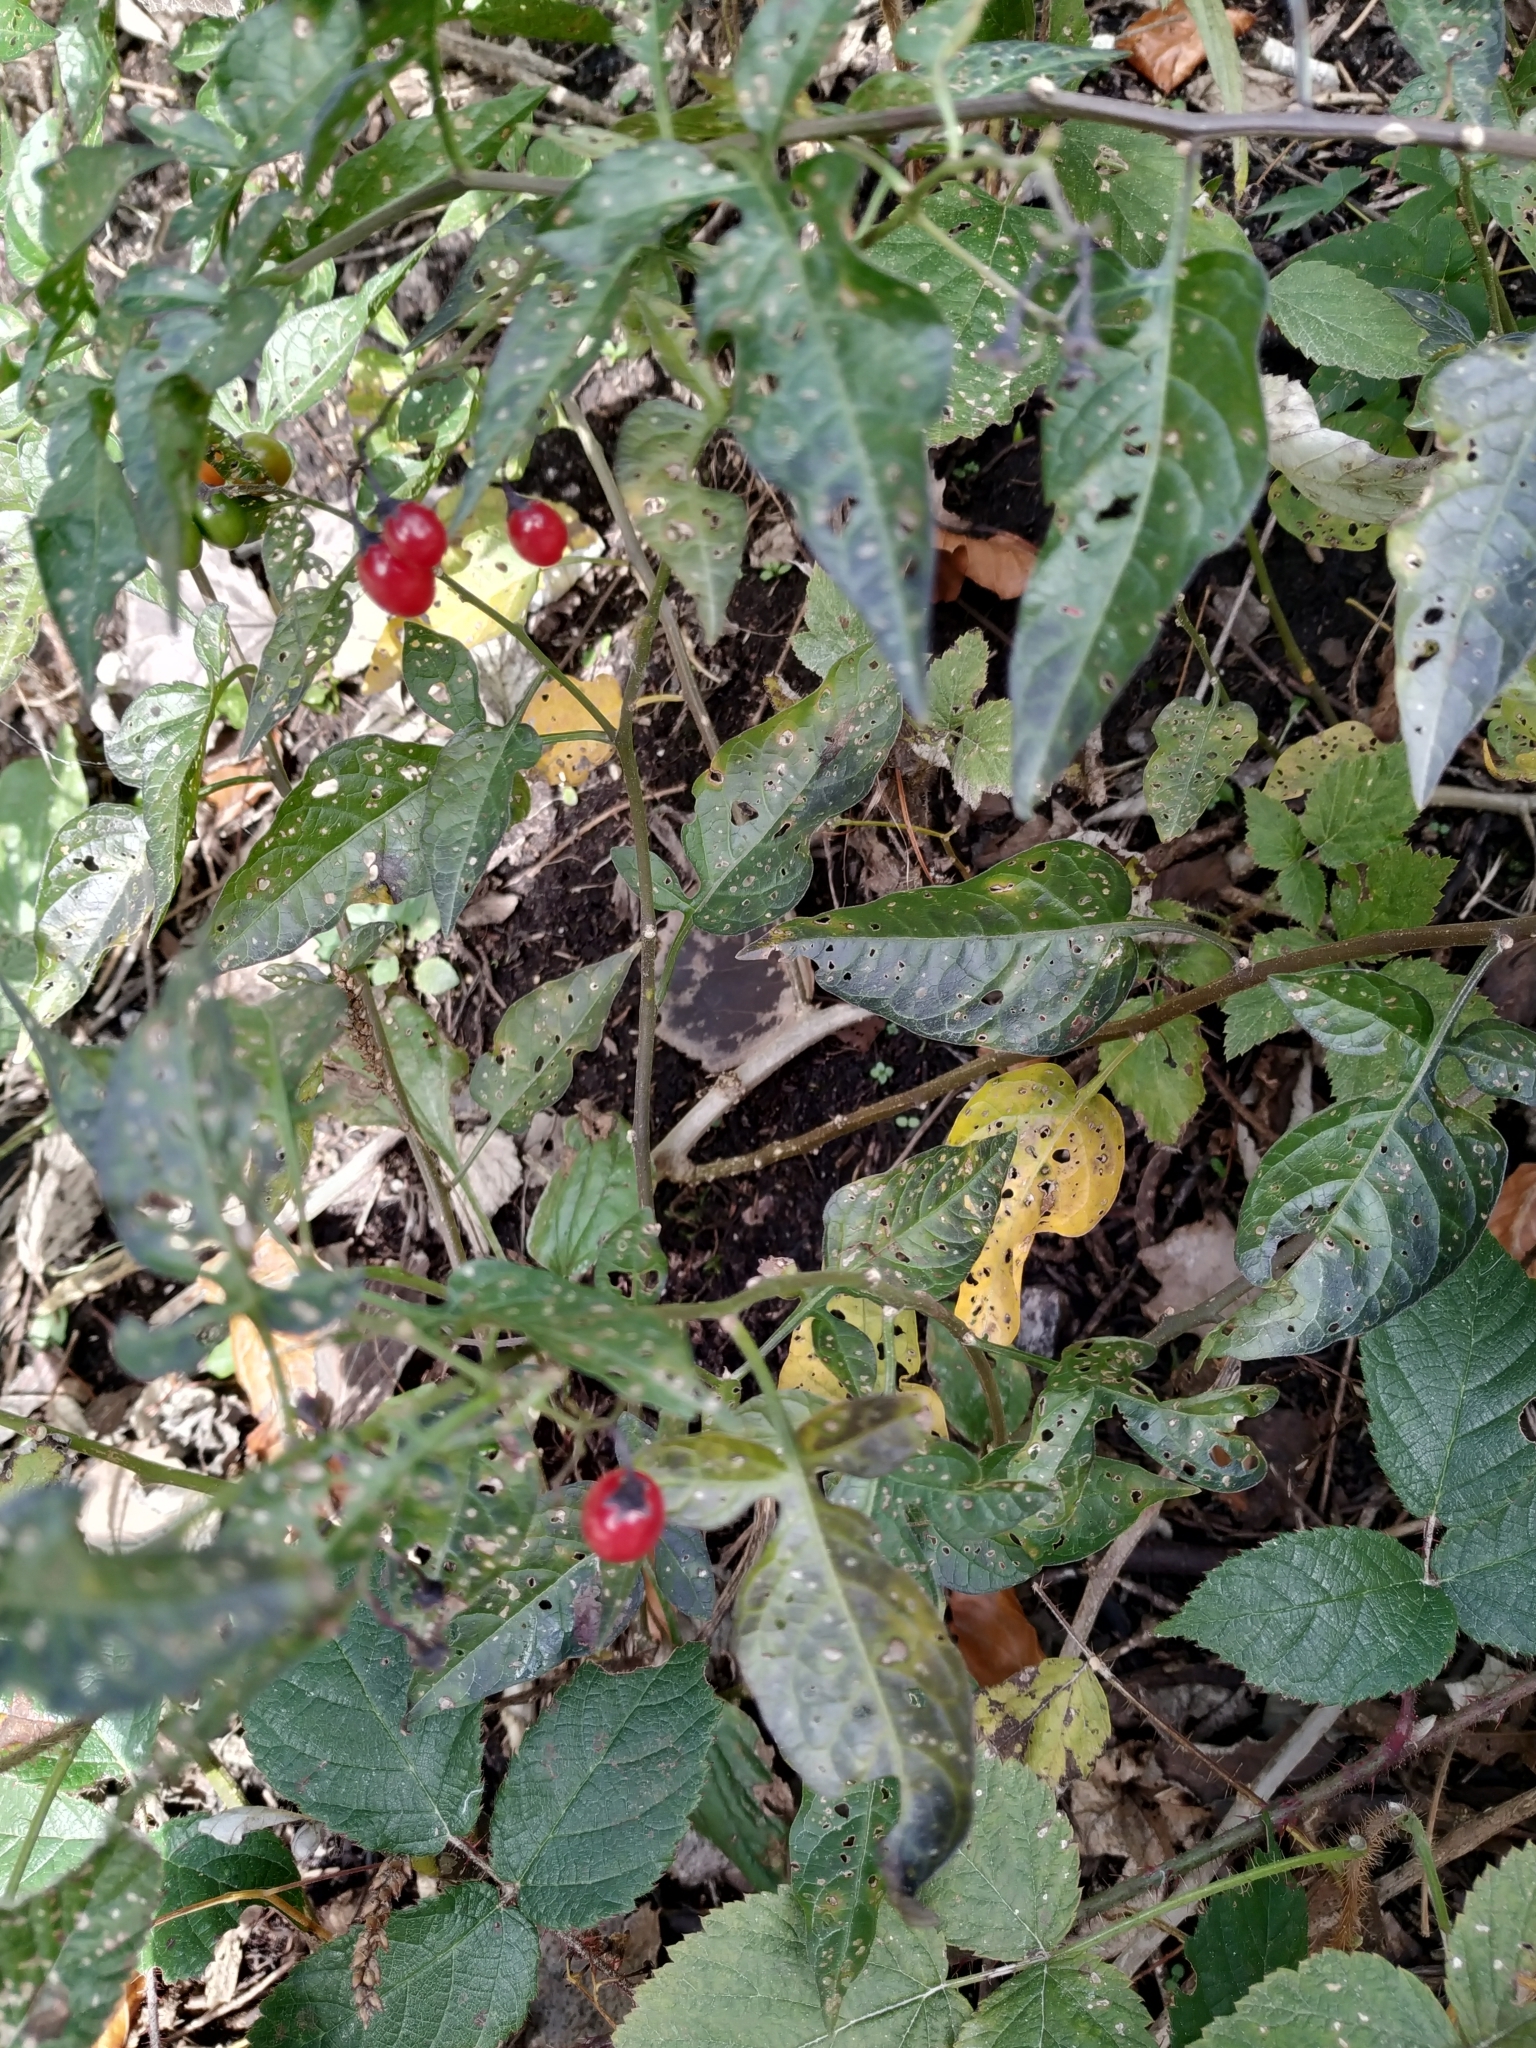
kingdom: Plantae
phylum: Tracheophyta
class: Magnoliopsida
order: Solanales
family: Solanaceae
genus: Solanum
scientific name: Solanum dulcamara
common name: Climbing nightshade
